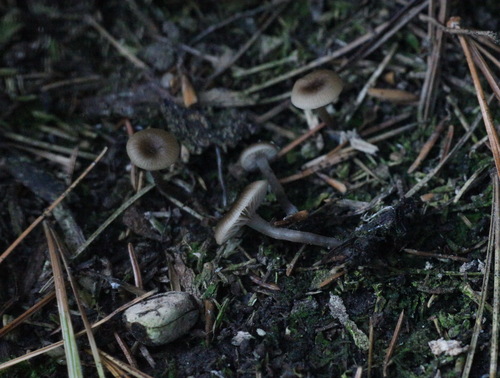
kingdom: Fungi
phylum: Basidiomycota
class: Agaricomycetes
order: Agaricales
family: Tricholomataceae
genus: Myxomphalia
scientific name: Myxomphalia maura
